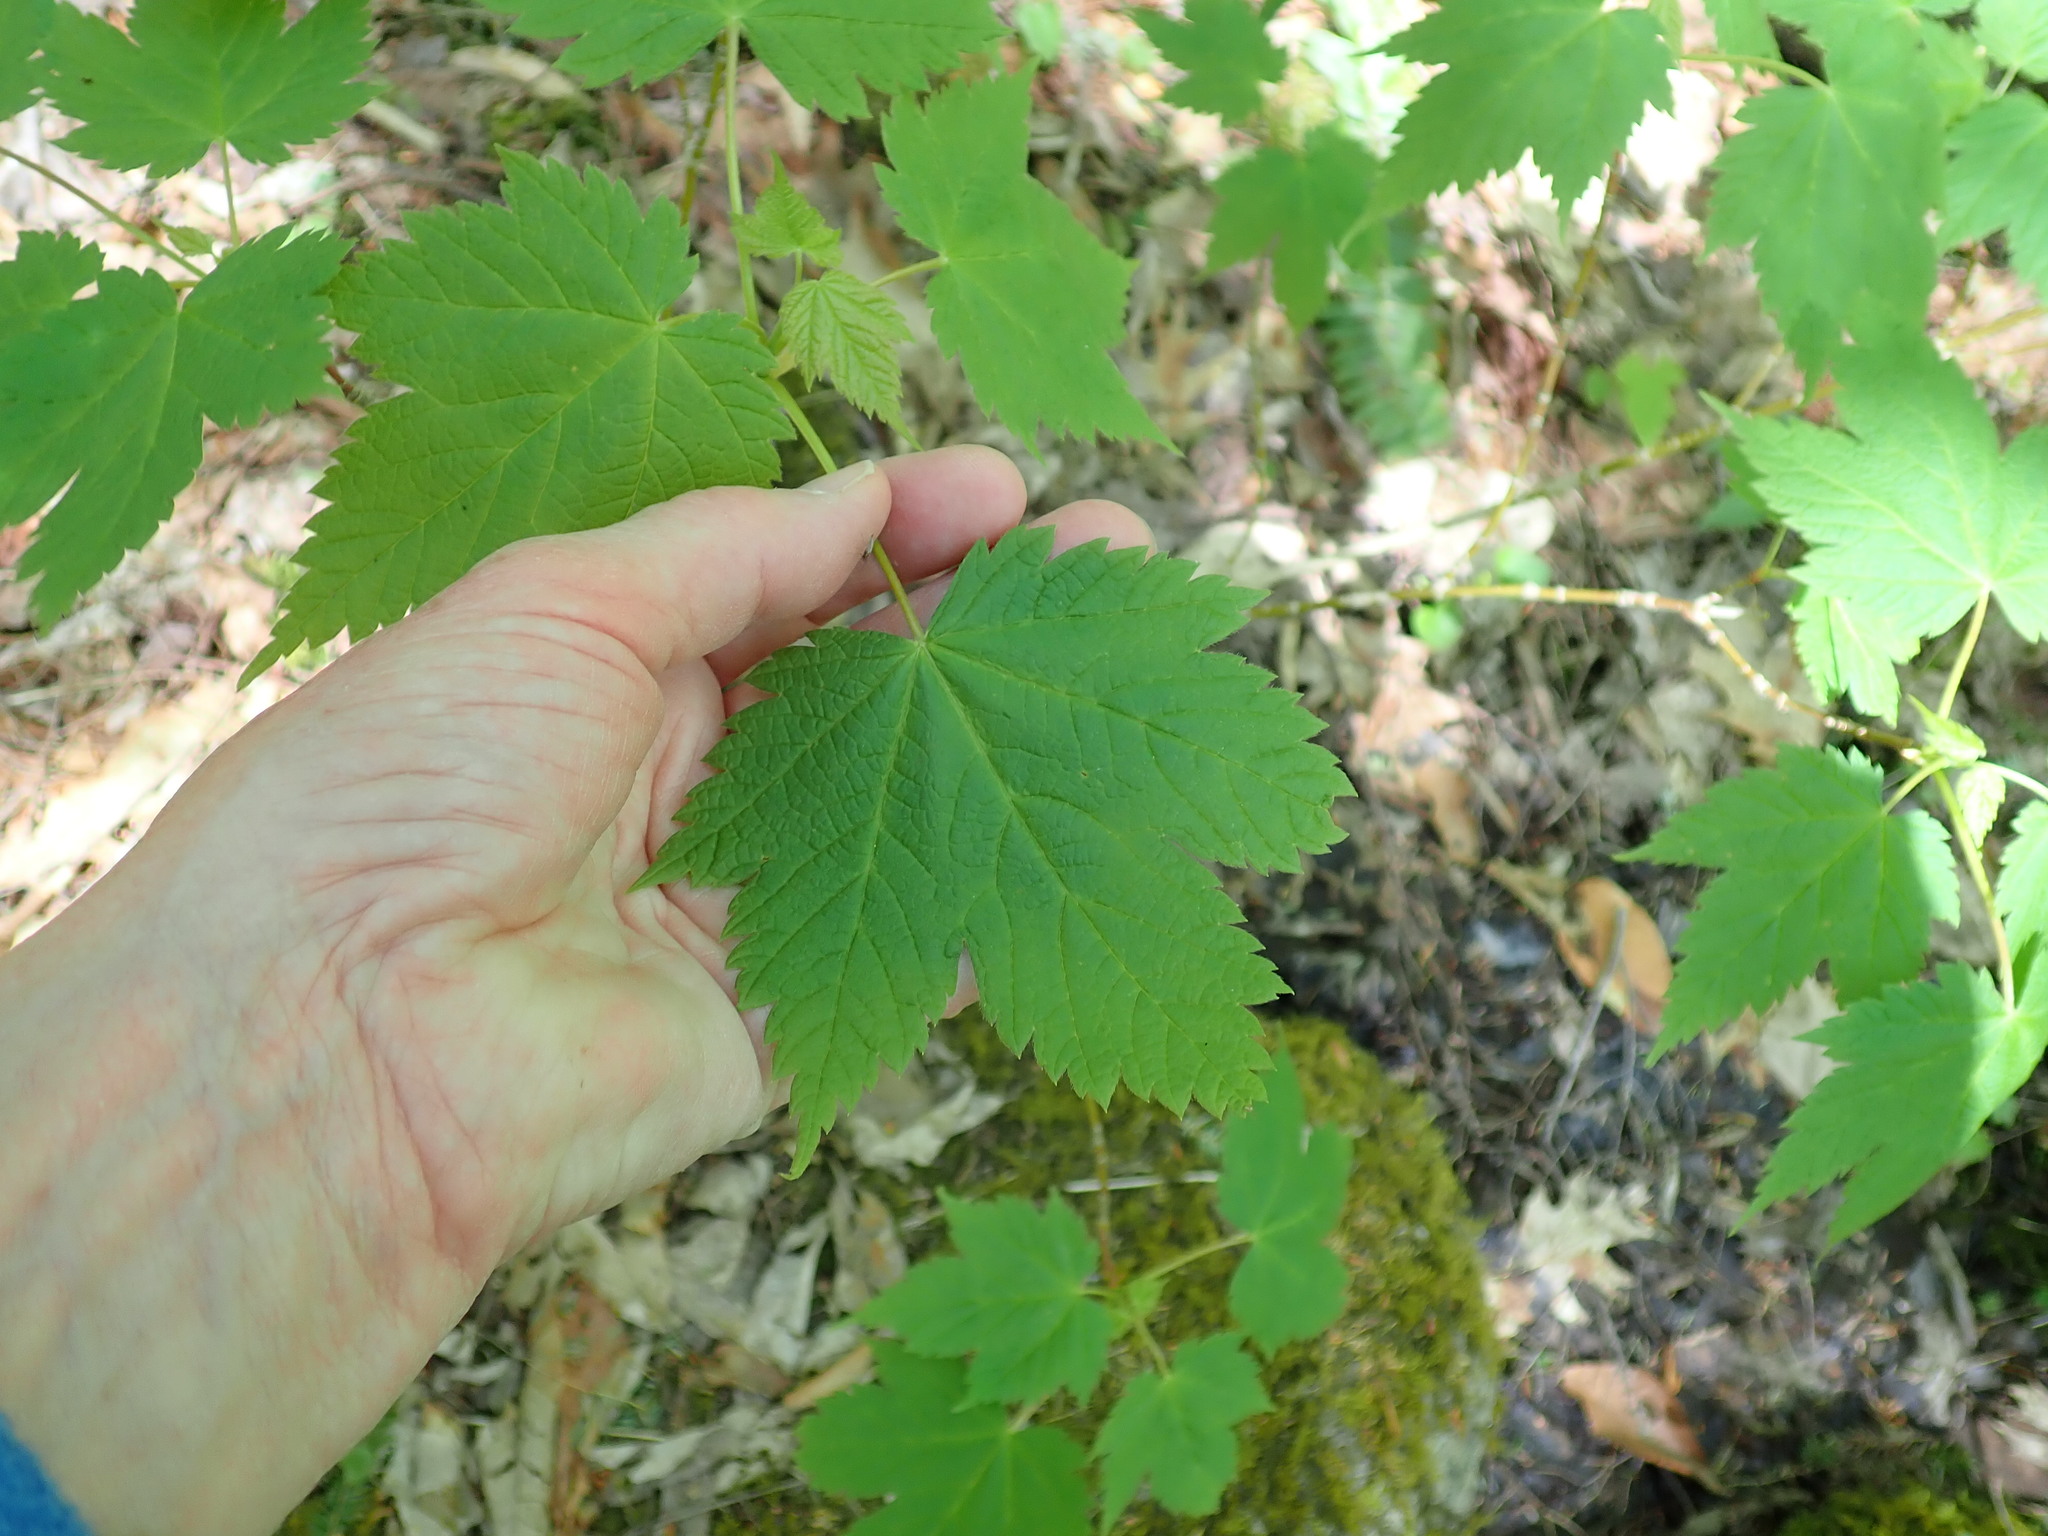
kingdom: Plantae
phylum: Tracheophyta
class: Magnoliopsida
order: Sapindales
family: Sapindaceae
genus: Acer
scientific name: Acer spicatum
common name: Mountain maple
